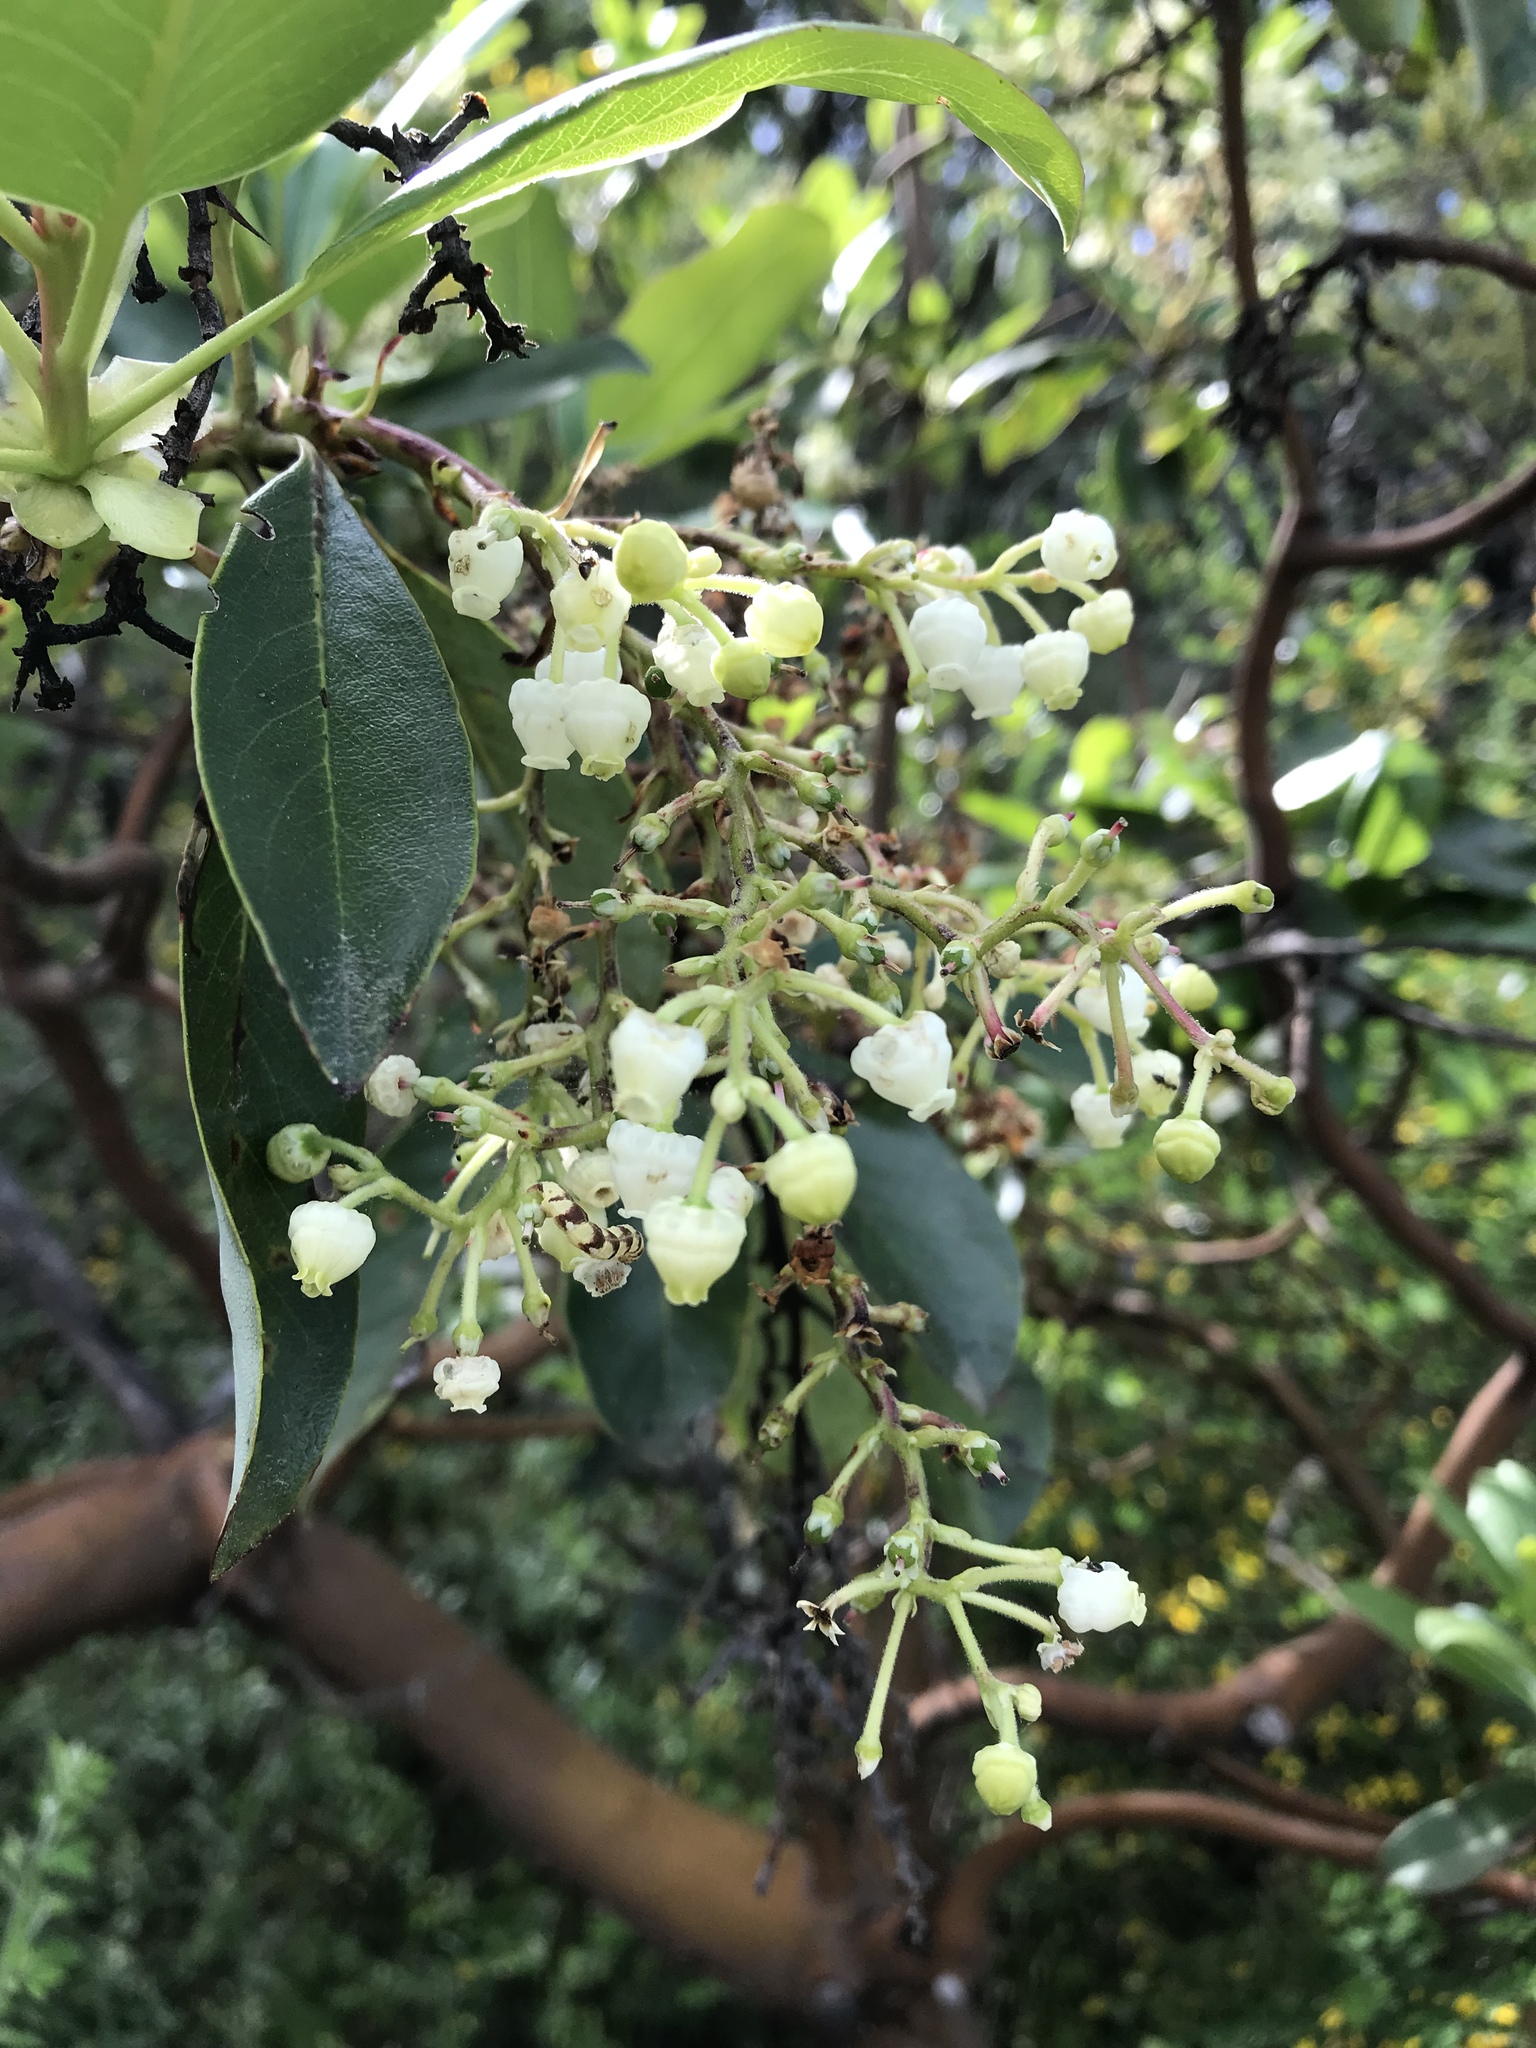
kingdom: Plantae
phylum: Tracheophyta
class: Magnoliopsida
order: Ericales
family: Ericaceae
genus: Arbutus
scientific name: Arbutus menziesii
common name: Pacific madrone
